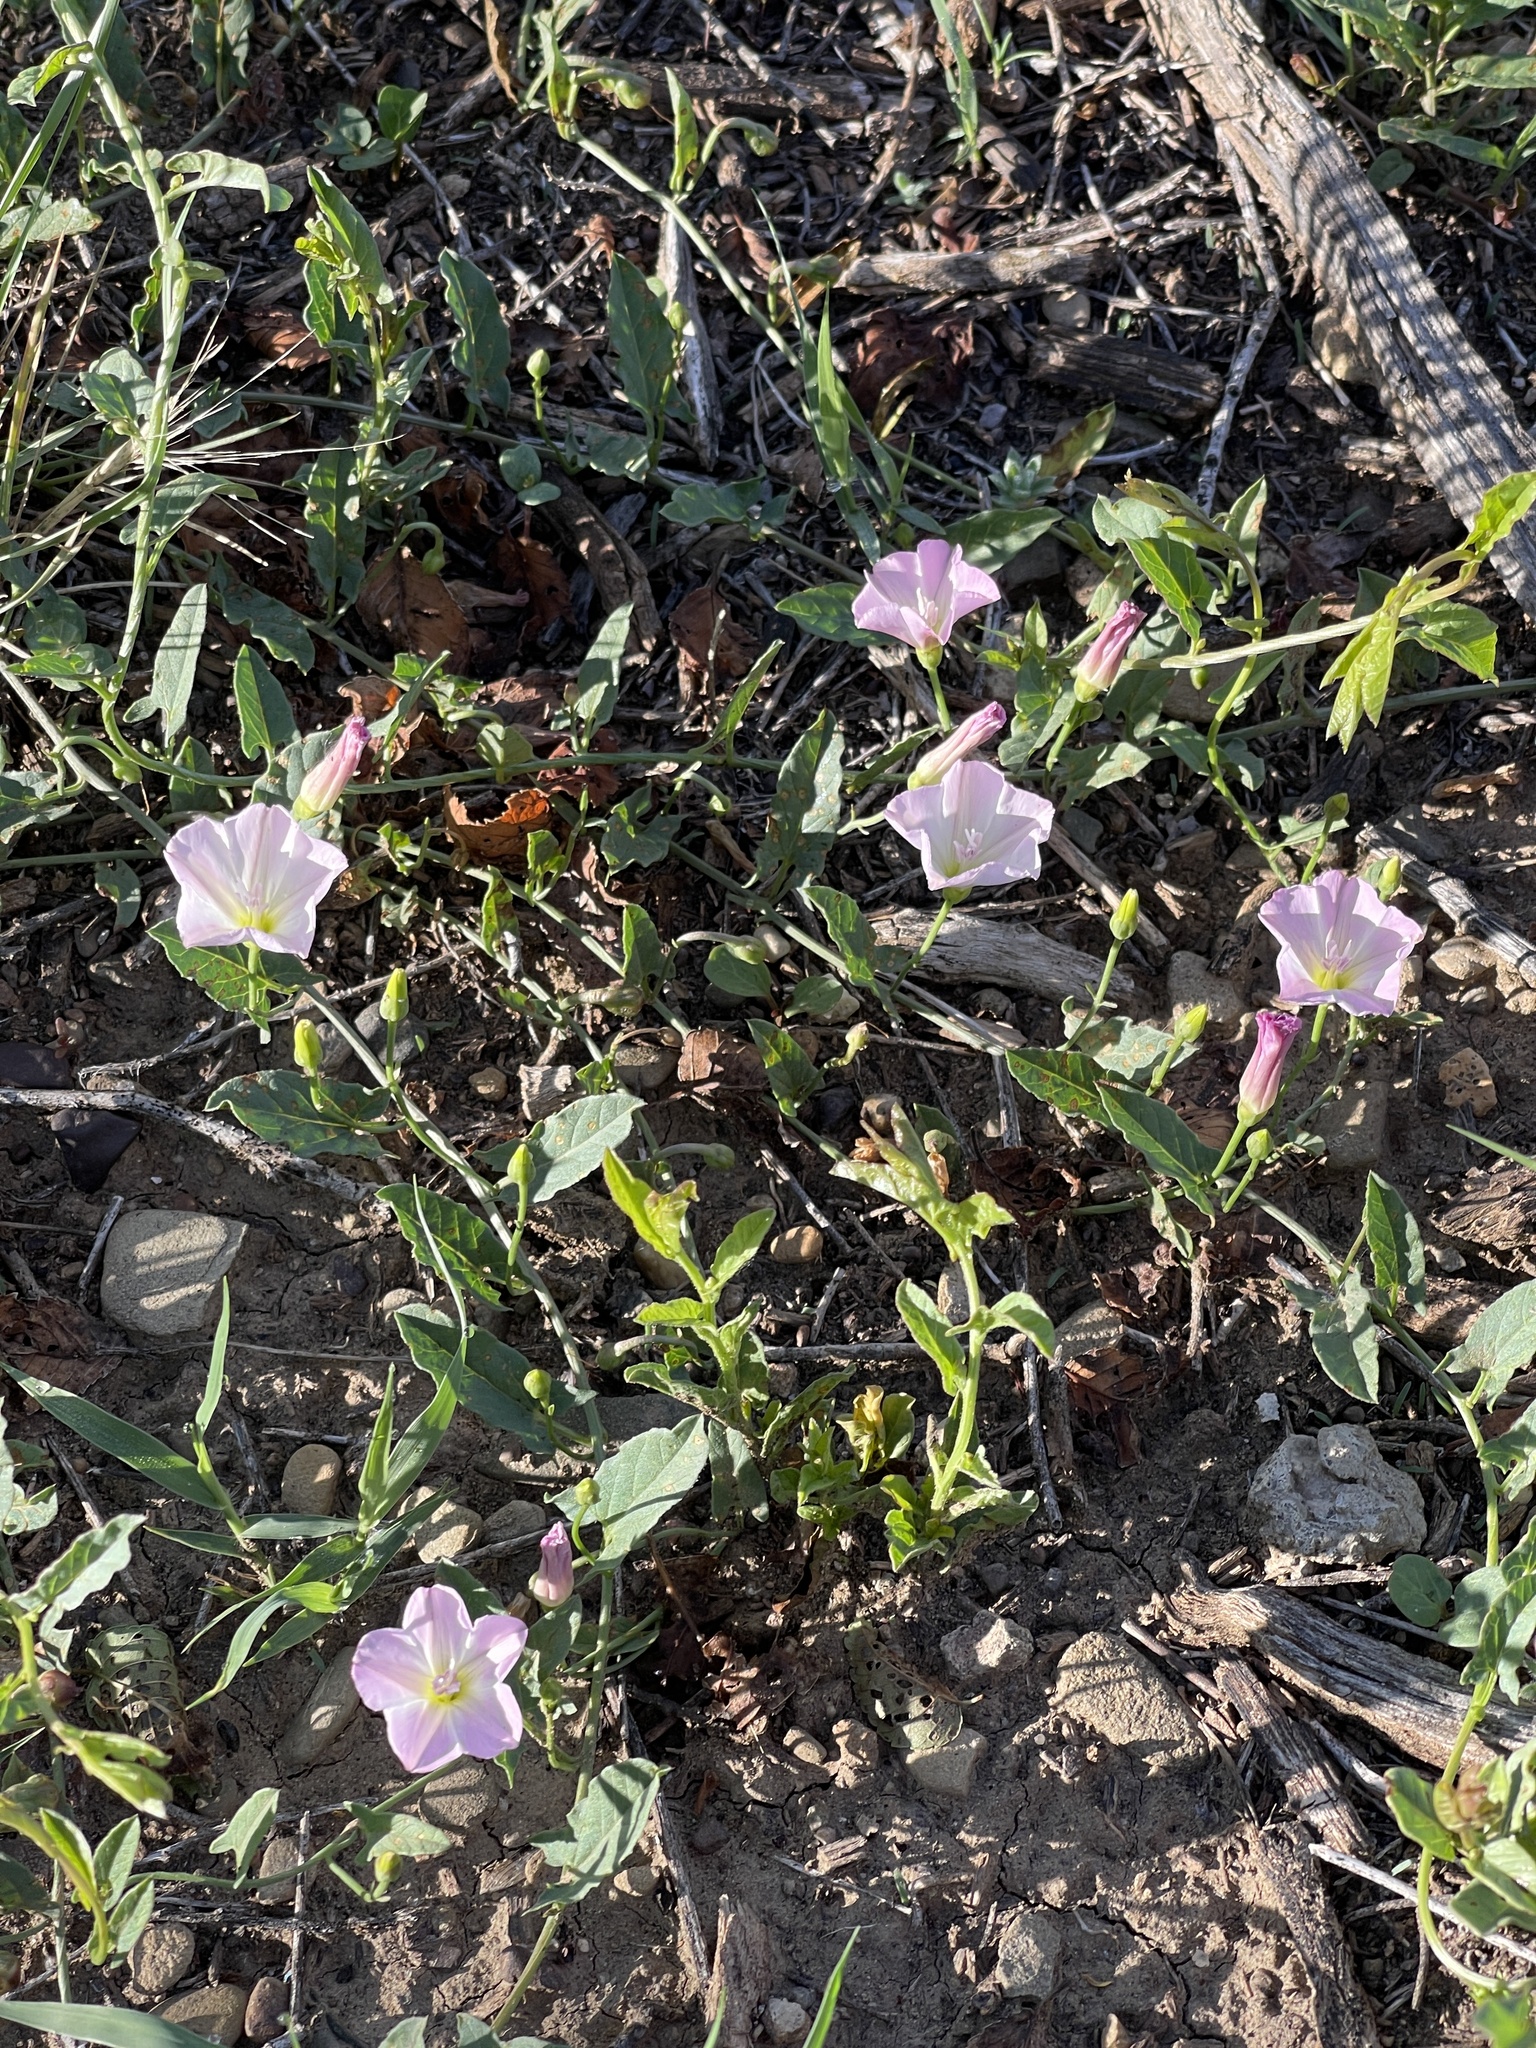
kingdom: Plantae
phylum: Tracheophyta
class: Magnoliopsida
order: Solanales
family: Convolvulaceae
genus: Convolvulus
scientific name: Convolvulus arvensis
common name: Field bindweed
